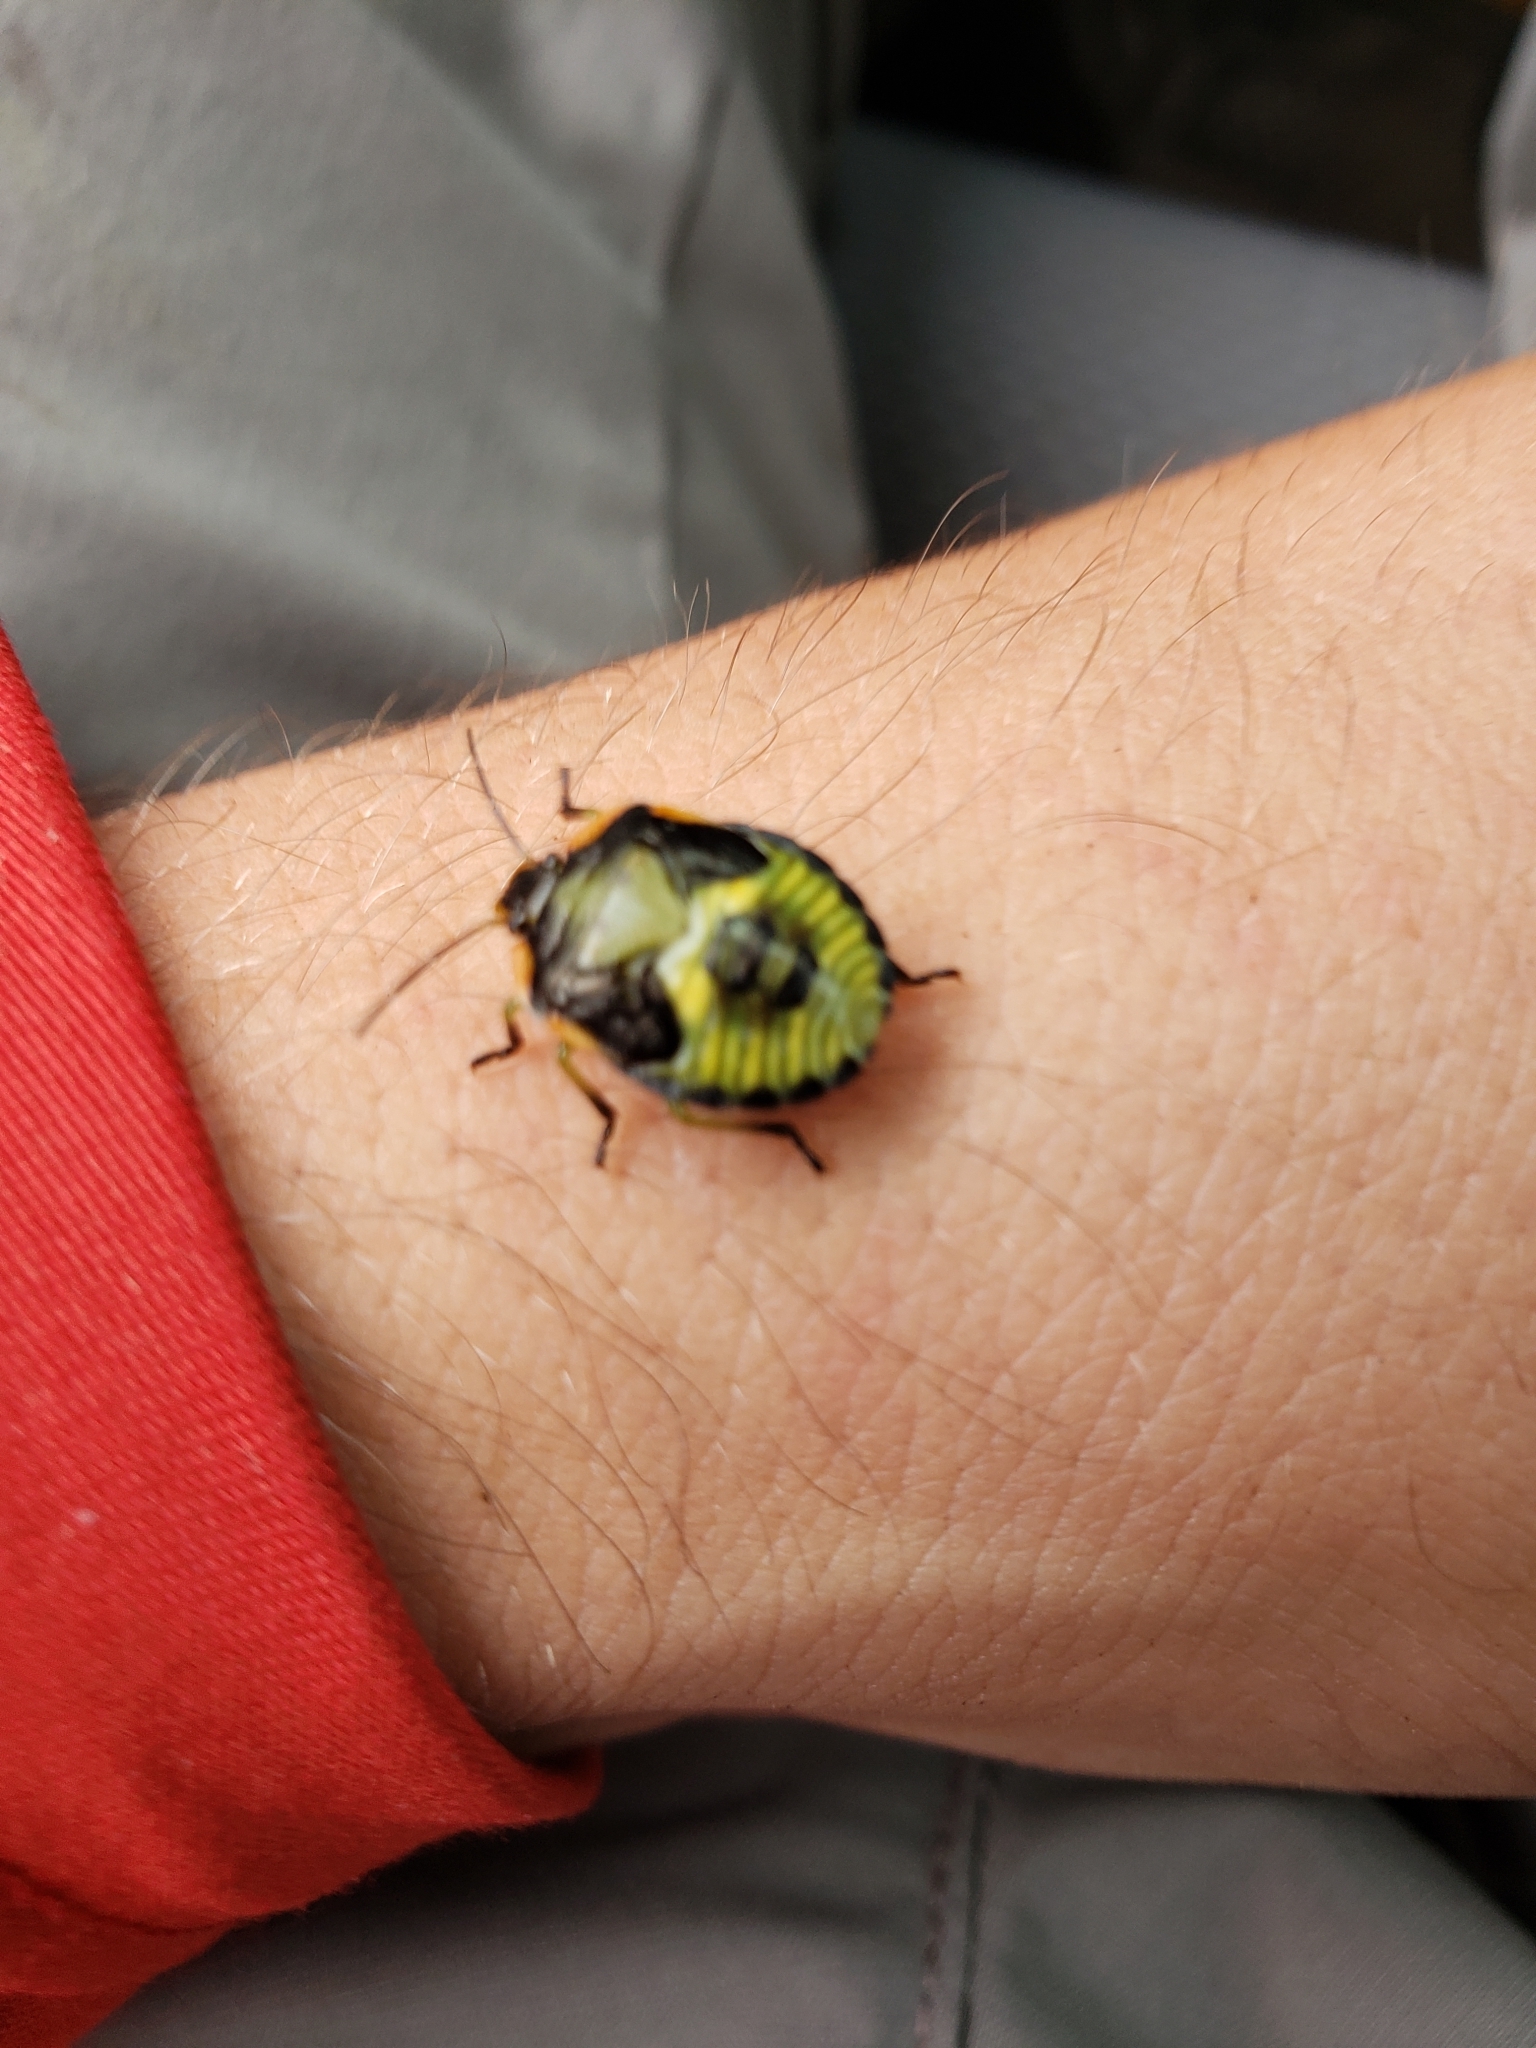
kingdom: Animalia
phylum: Arthropoda
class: Insecta
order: Hemiptera
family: Pentatomidae
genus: Chinavia
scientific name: Chinavia hilaris
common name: Green stink bug
